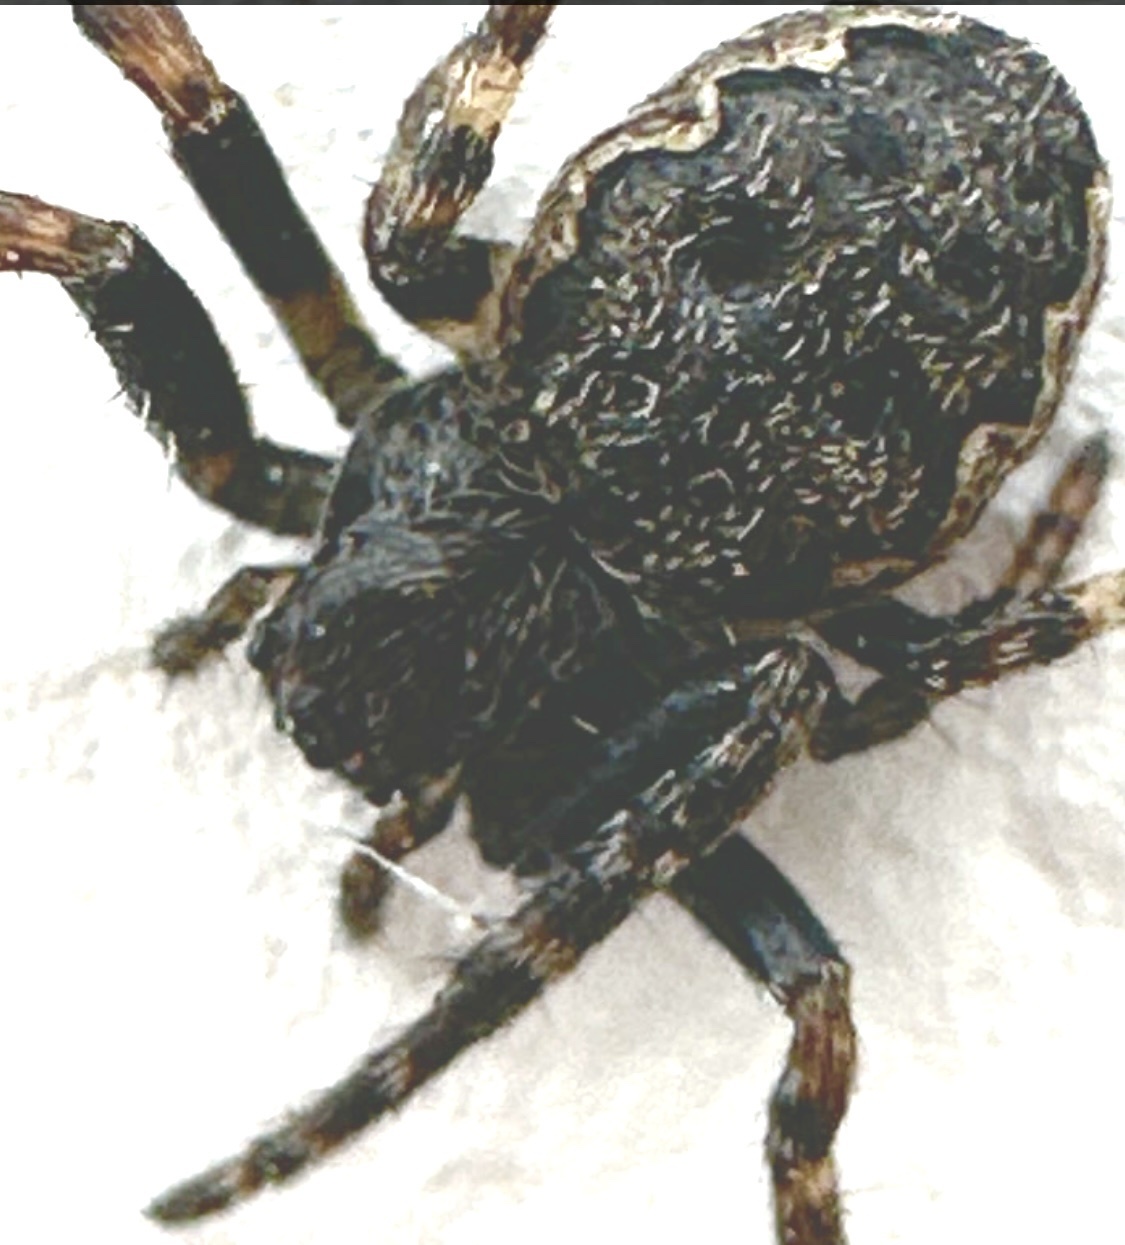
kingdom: Animalia
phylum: Arthropoda
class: Arachnida
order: Araneae
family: Araneidae
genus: Nuctenea
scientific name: Nuctenea umbratica
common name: Toad spider
